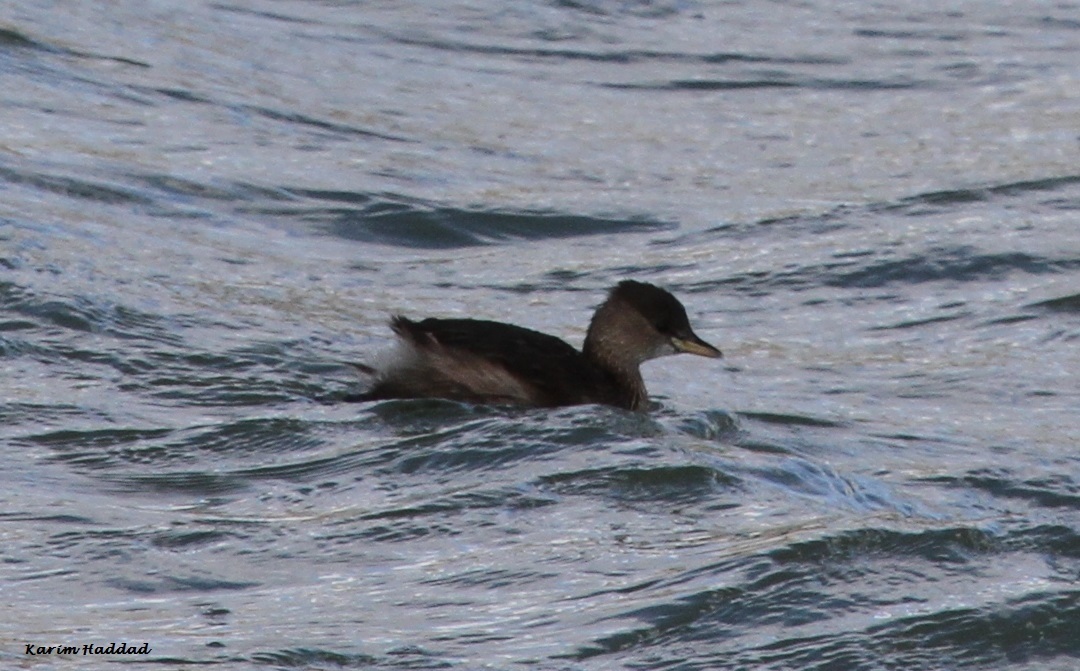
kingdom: Animalia
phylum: Chordata
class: Aves
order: Podicipediformes
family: Podicipedidae
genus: Tachybaptus
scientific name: Tachybaptus ruficollis
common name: Little grebe
